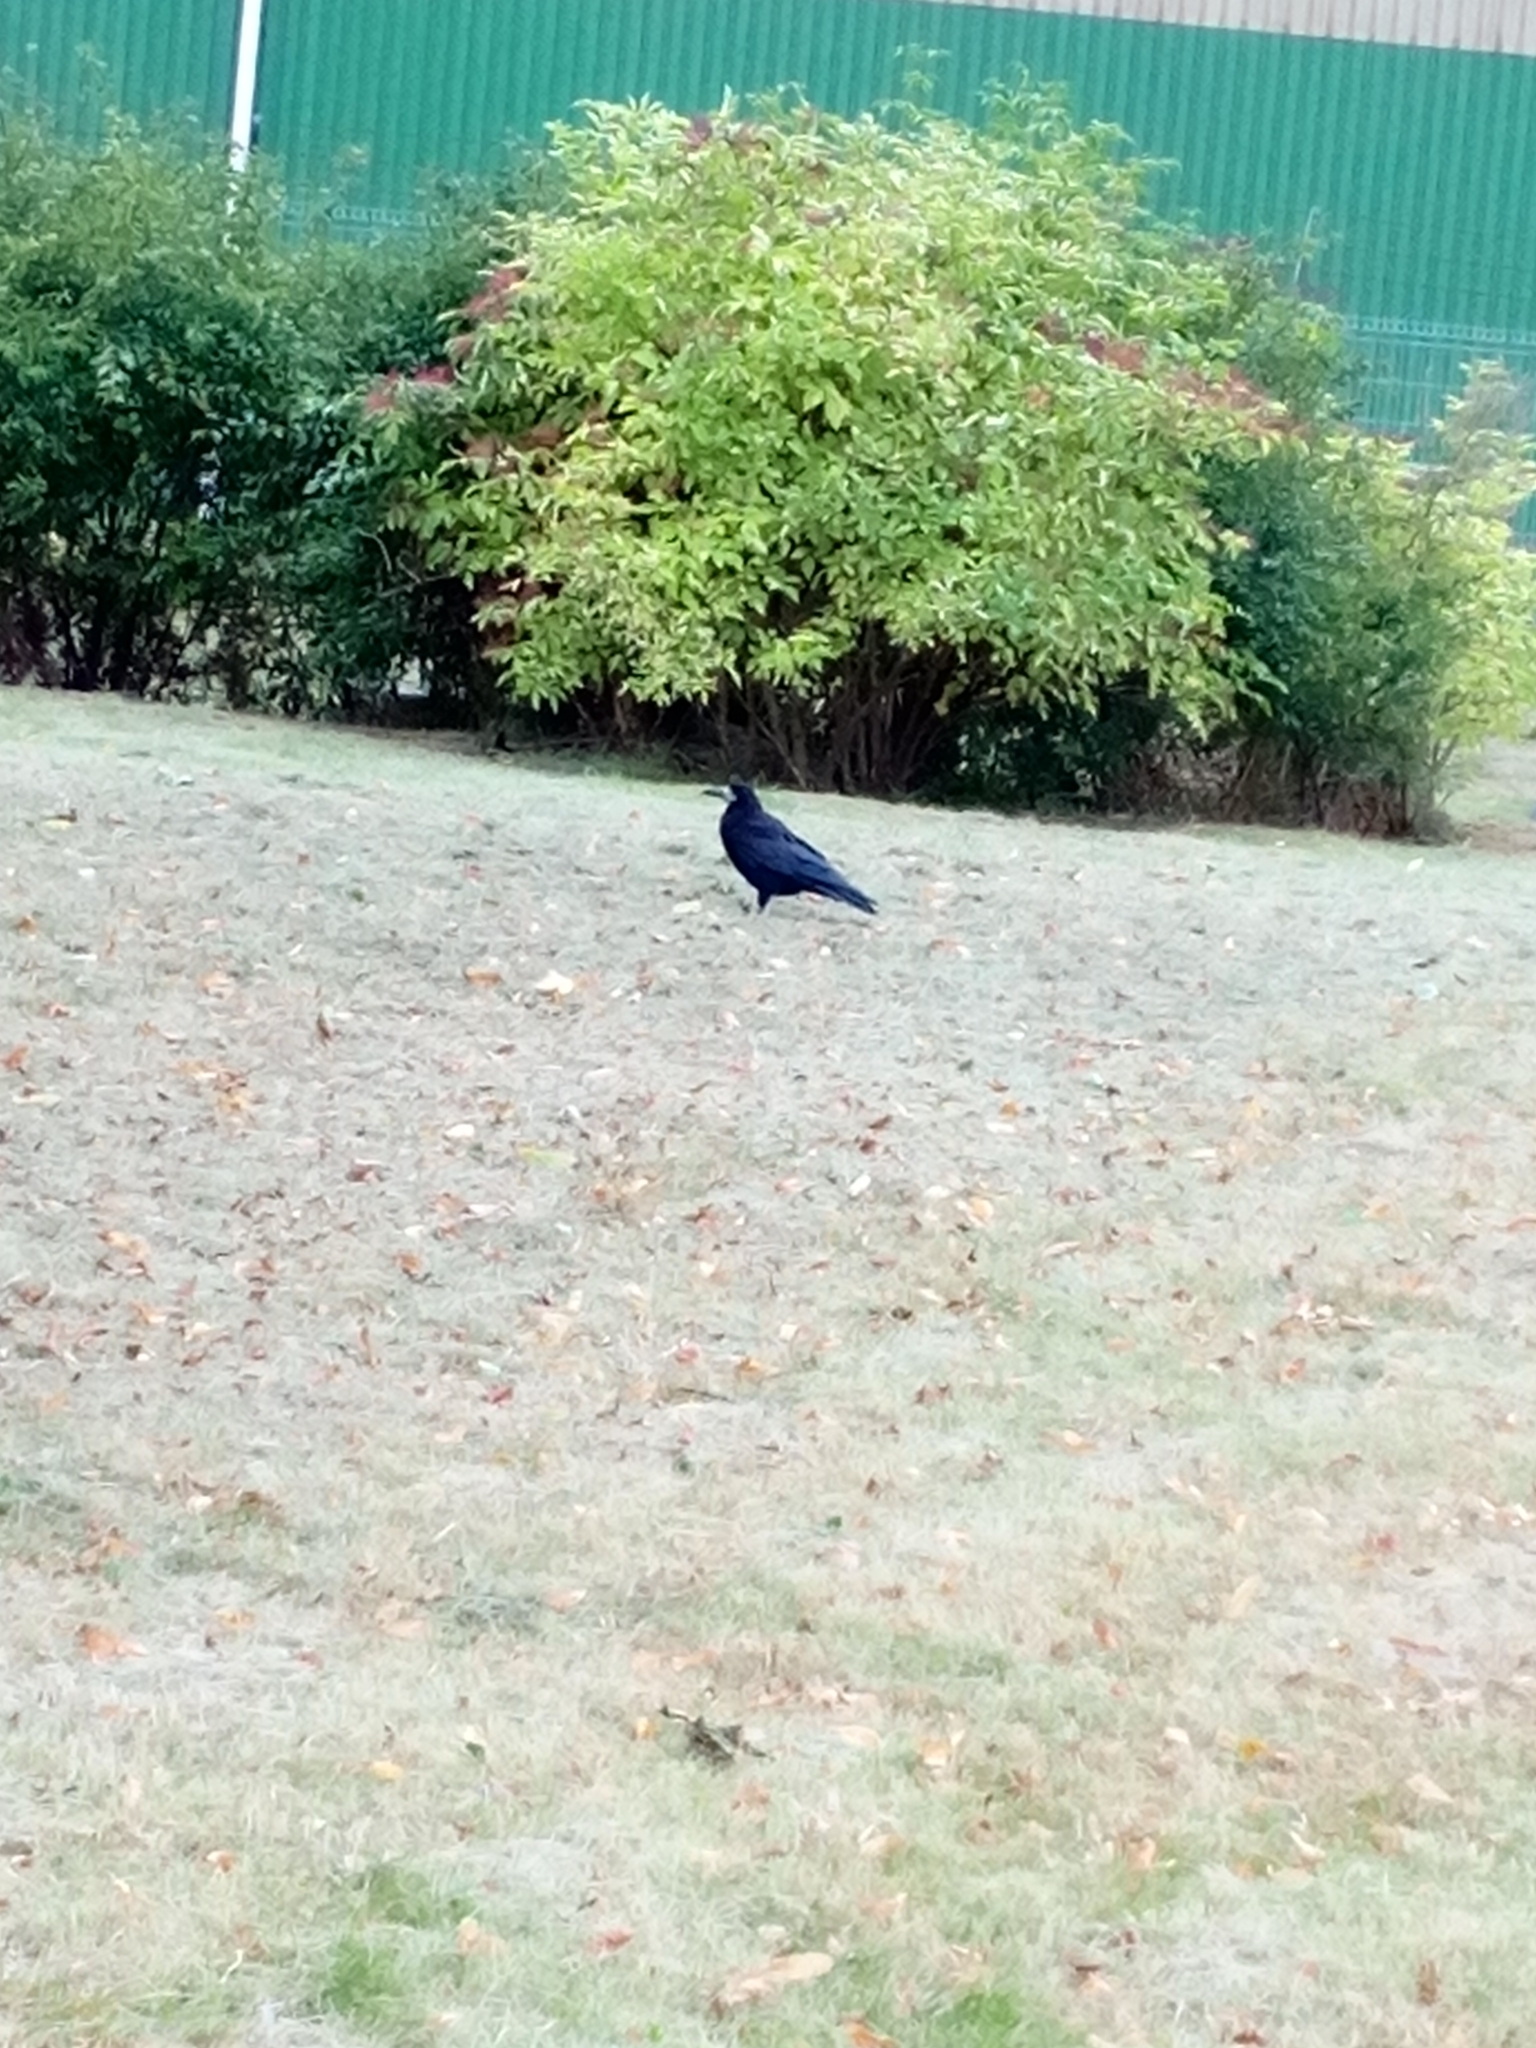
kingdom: Animalia
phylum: Chordata
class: Aves
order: Passeriformes
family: Corvidae
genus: Corvus
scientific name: Corvus frugilegus
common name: Rook
